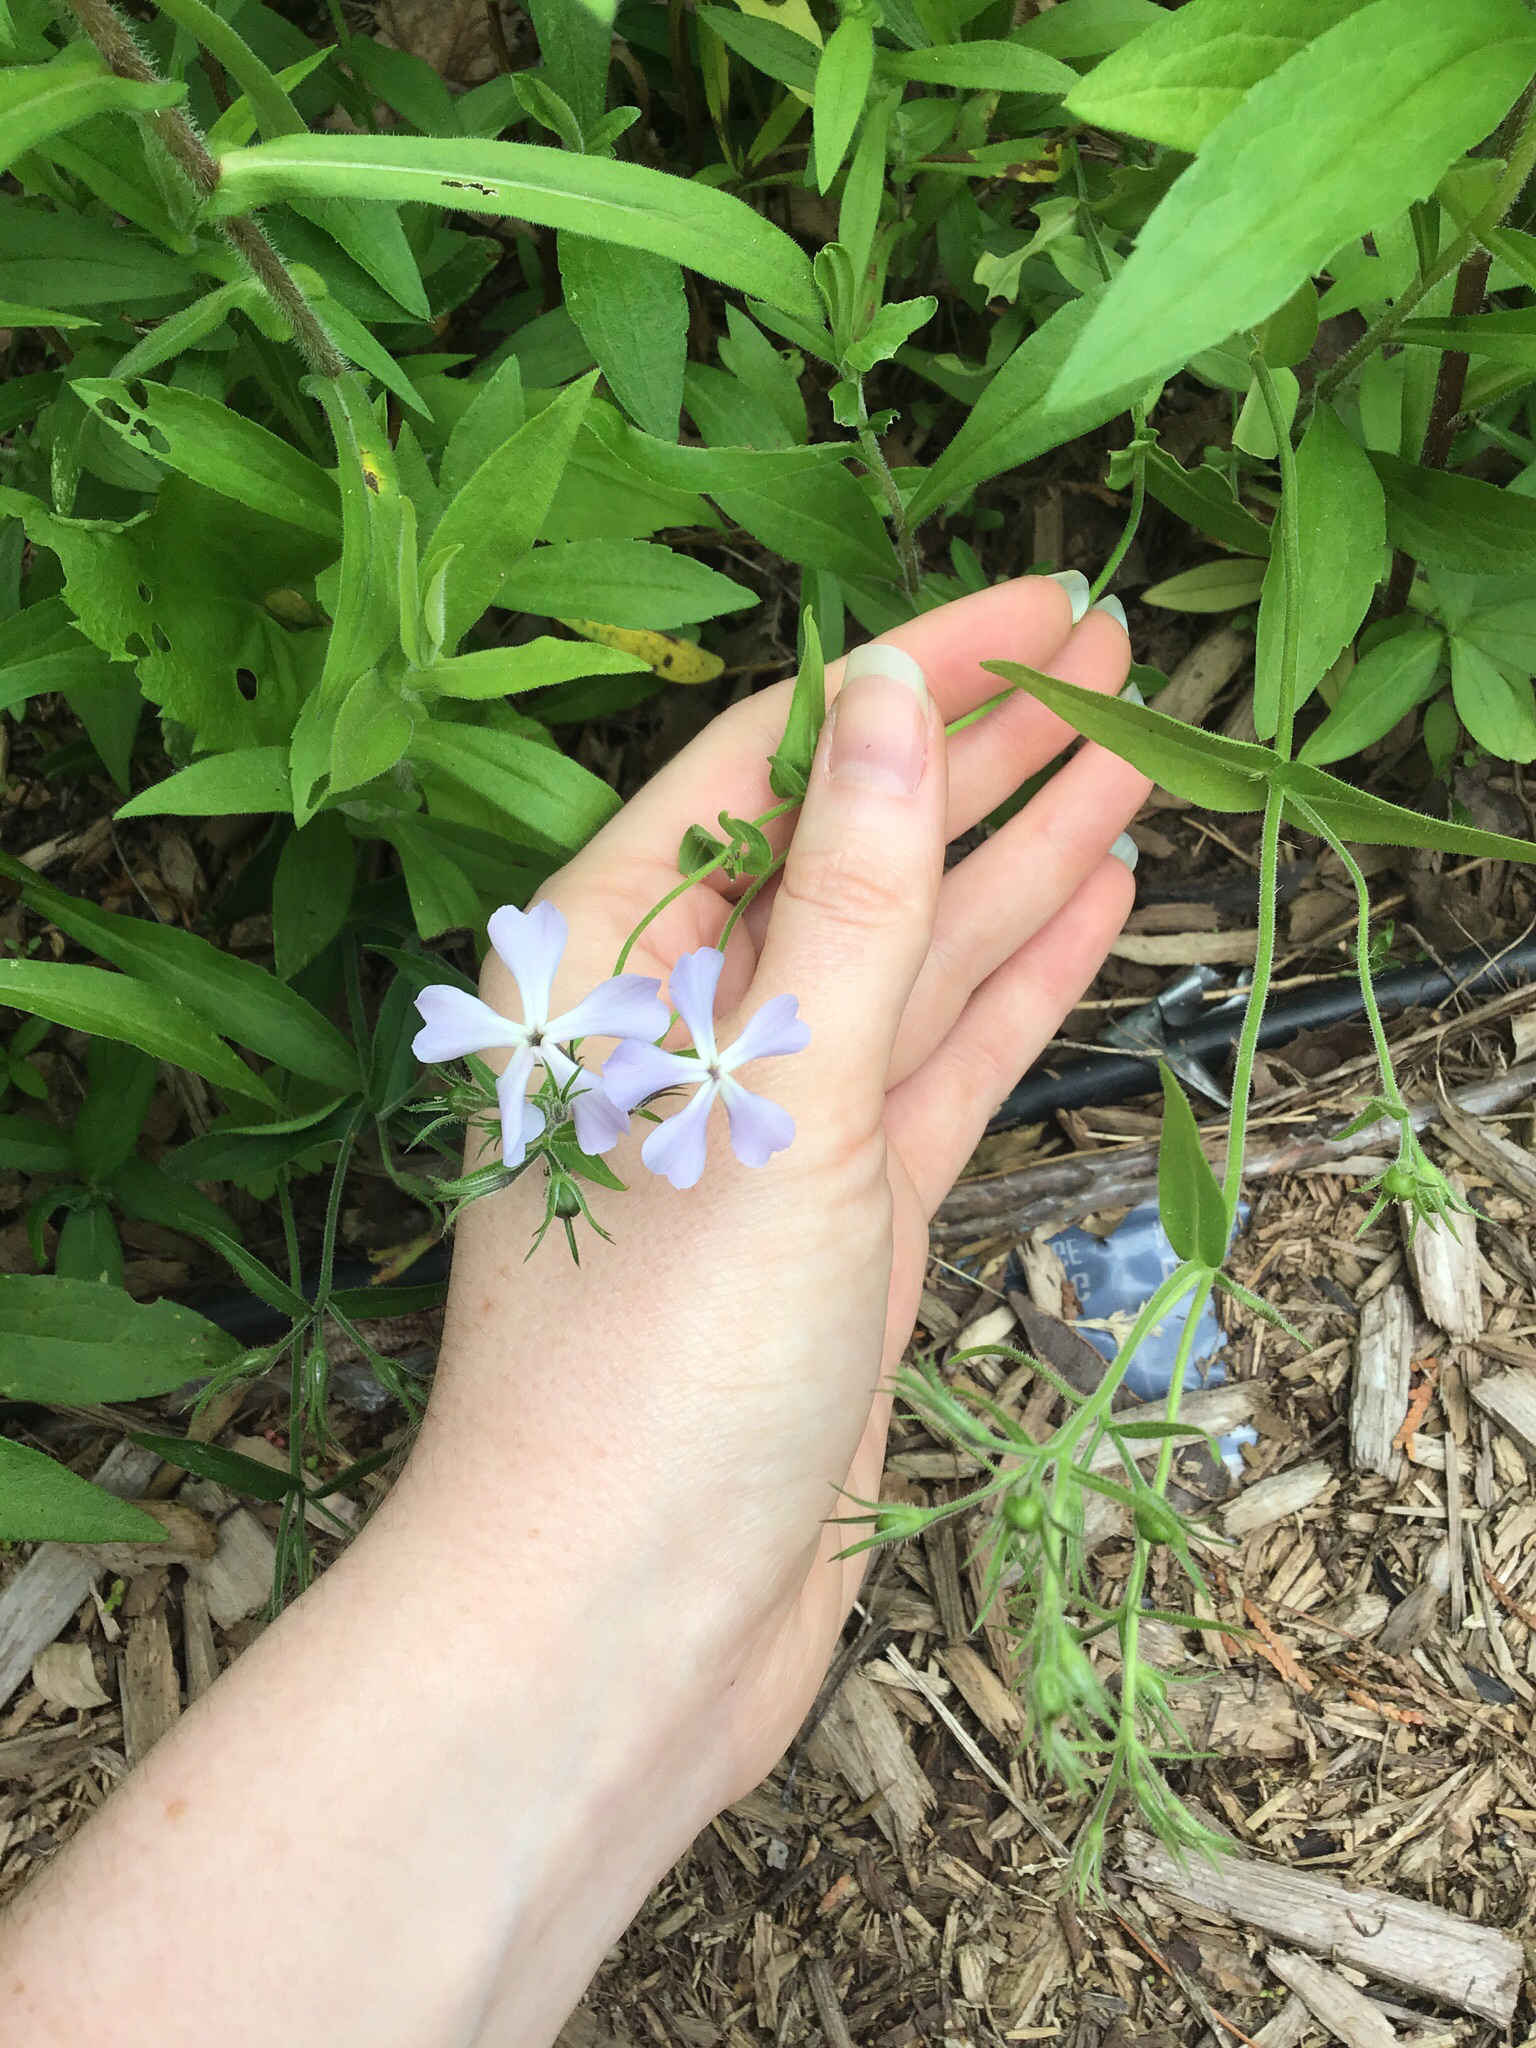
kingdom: Plantae
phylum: Tracheophyta
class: Magnoliopsida
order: Ericales
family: Polemoniaceae
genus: Phlox
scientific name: Phlox divaricata
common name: Blue phlox
